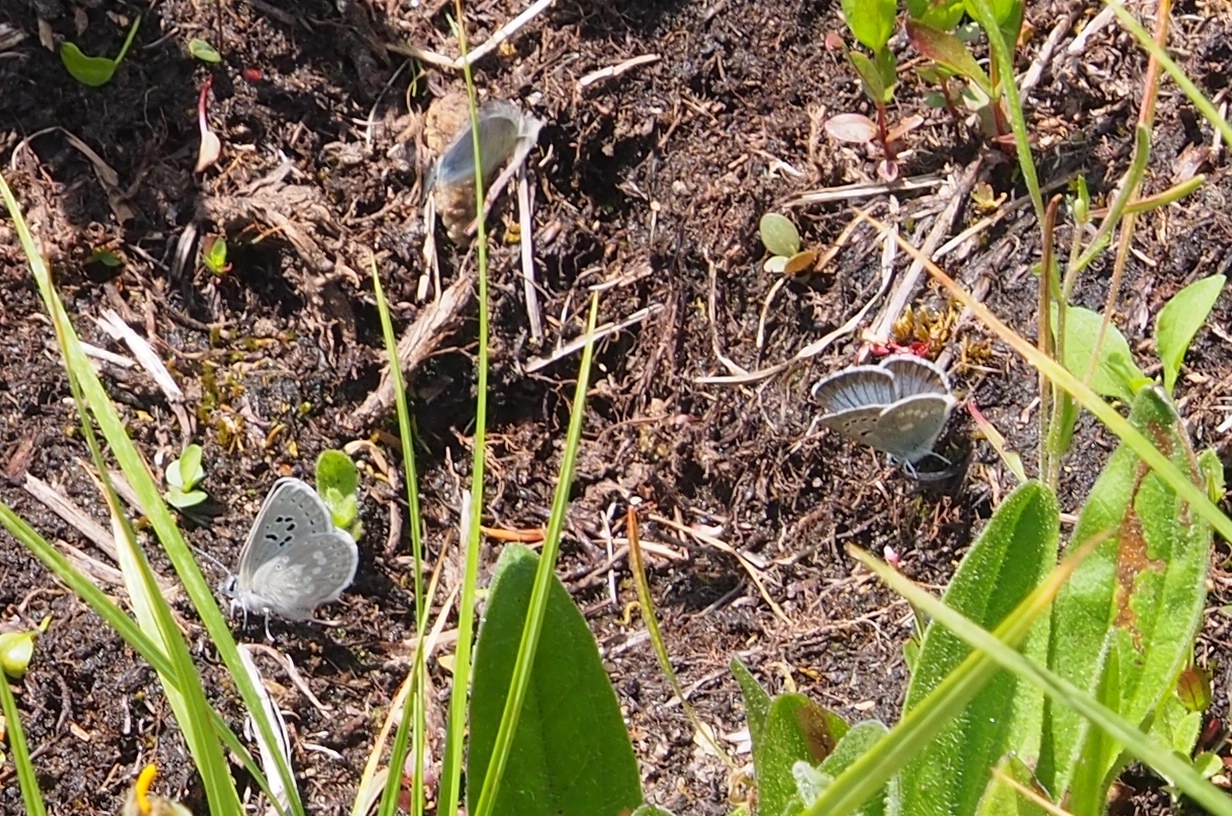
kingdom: Animalia
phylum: Arthropoda
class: Insecta
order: Lepidoptera
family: Lycaenidae
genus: Icaricia
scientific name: Icaricia icarioides
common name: Boisduval's blue
